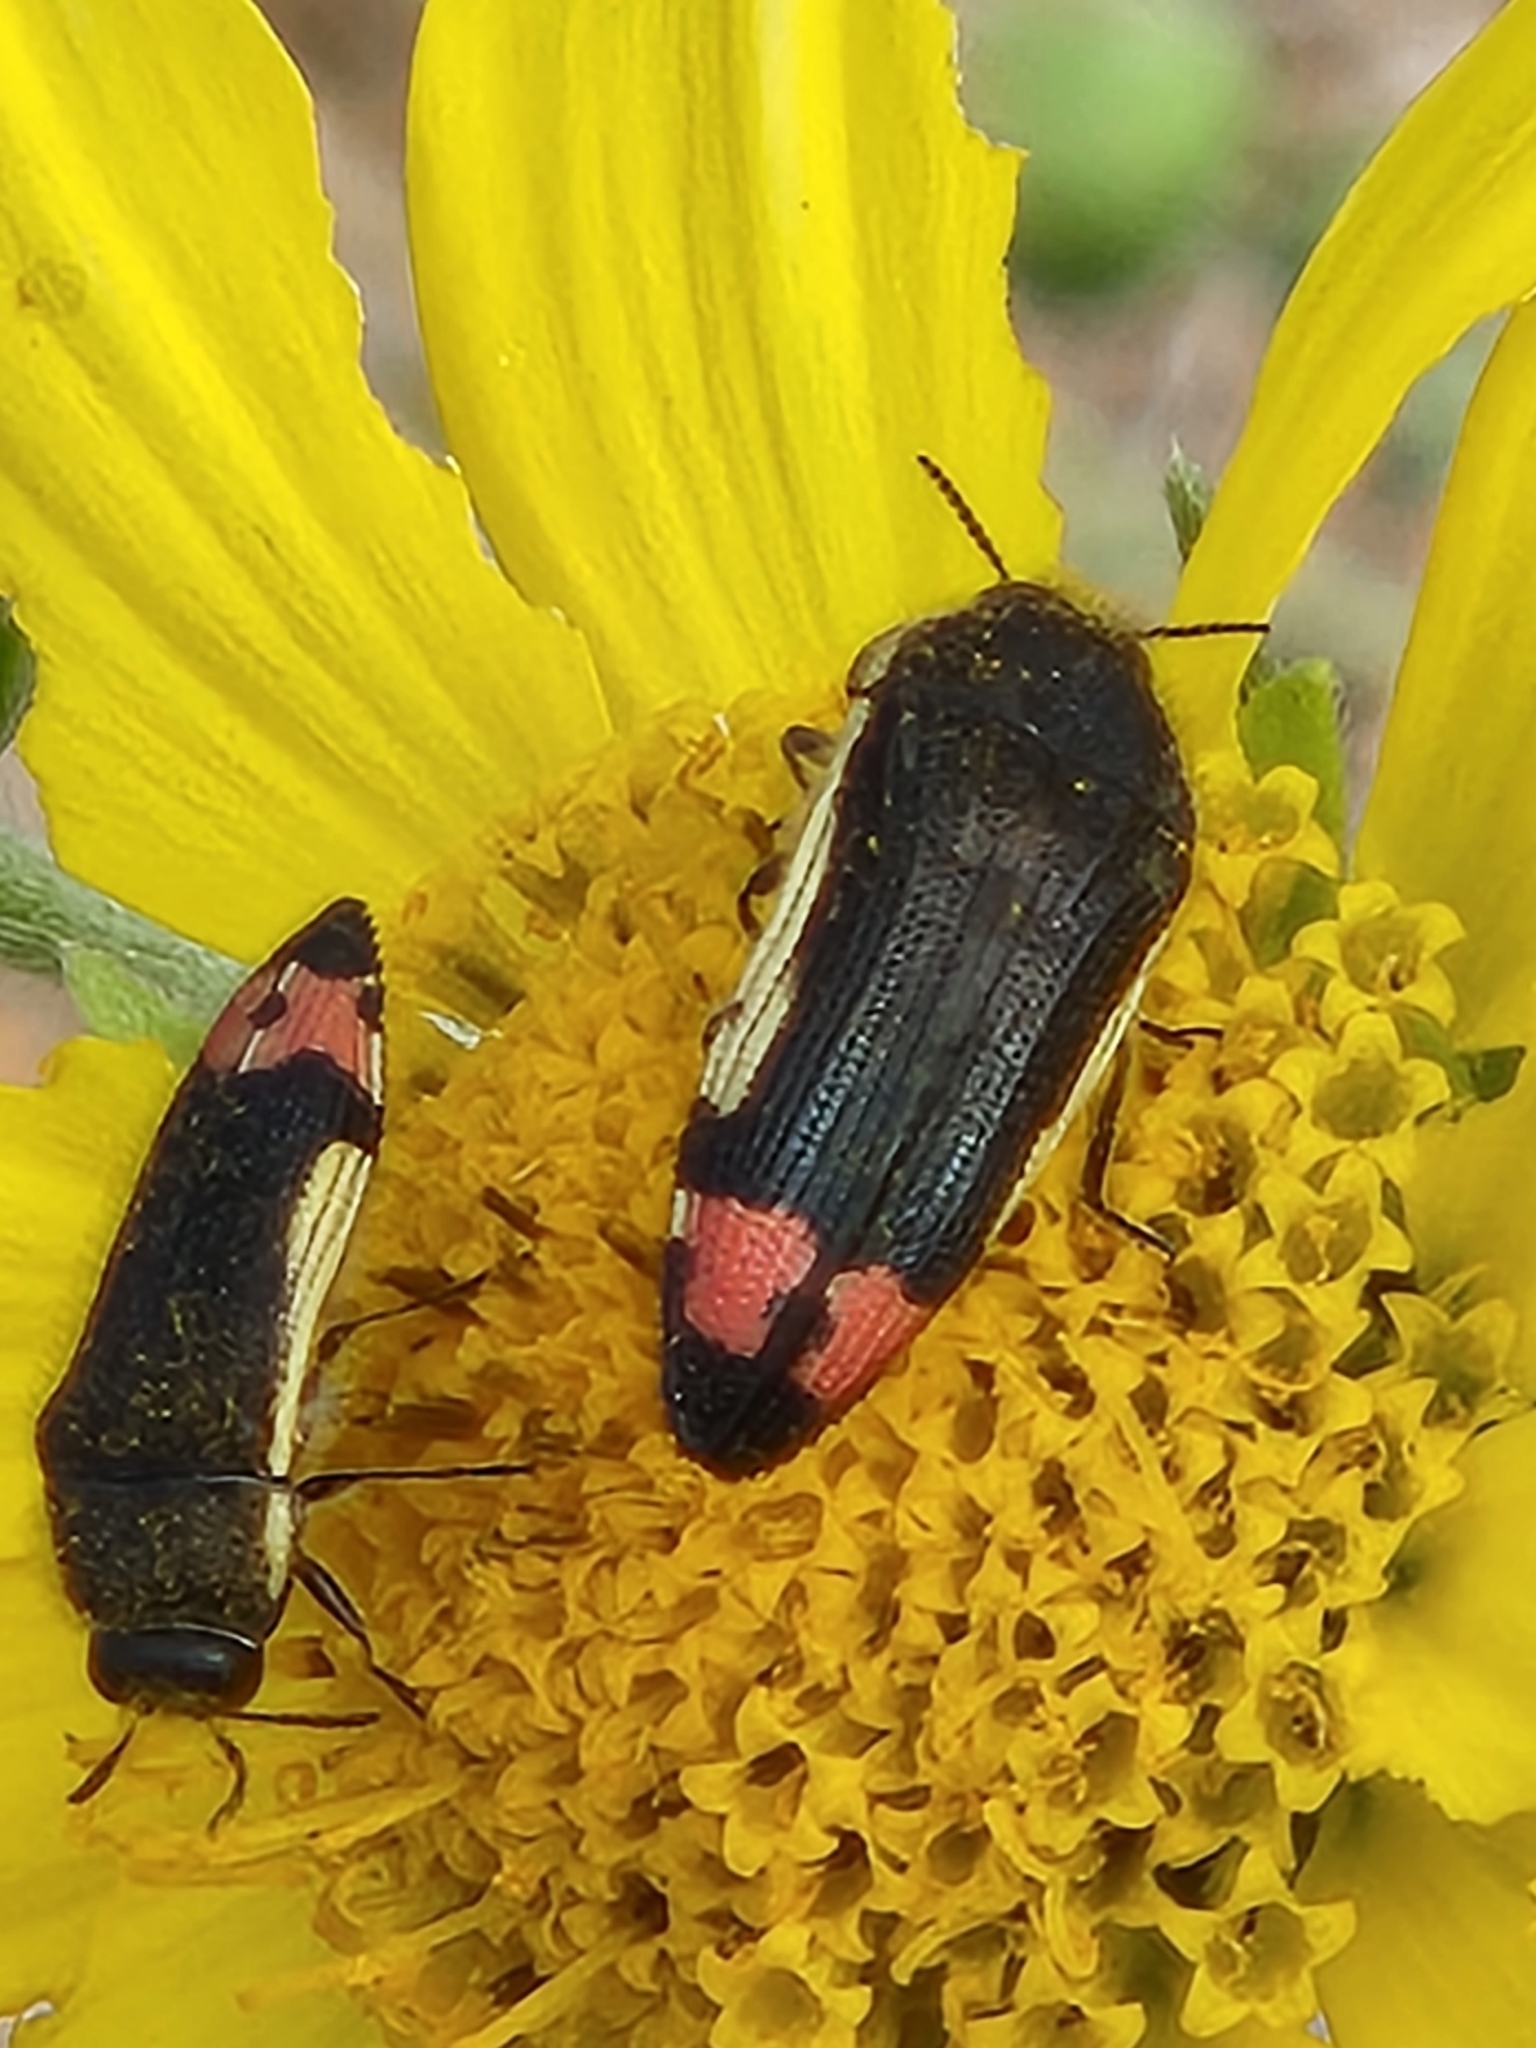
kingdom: Animalia
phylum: Arthropoda
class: Insecta
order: Coleoptera
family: Buprestidae
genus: Acmaeodera
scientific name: Acmaeodera flavomarginata
